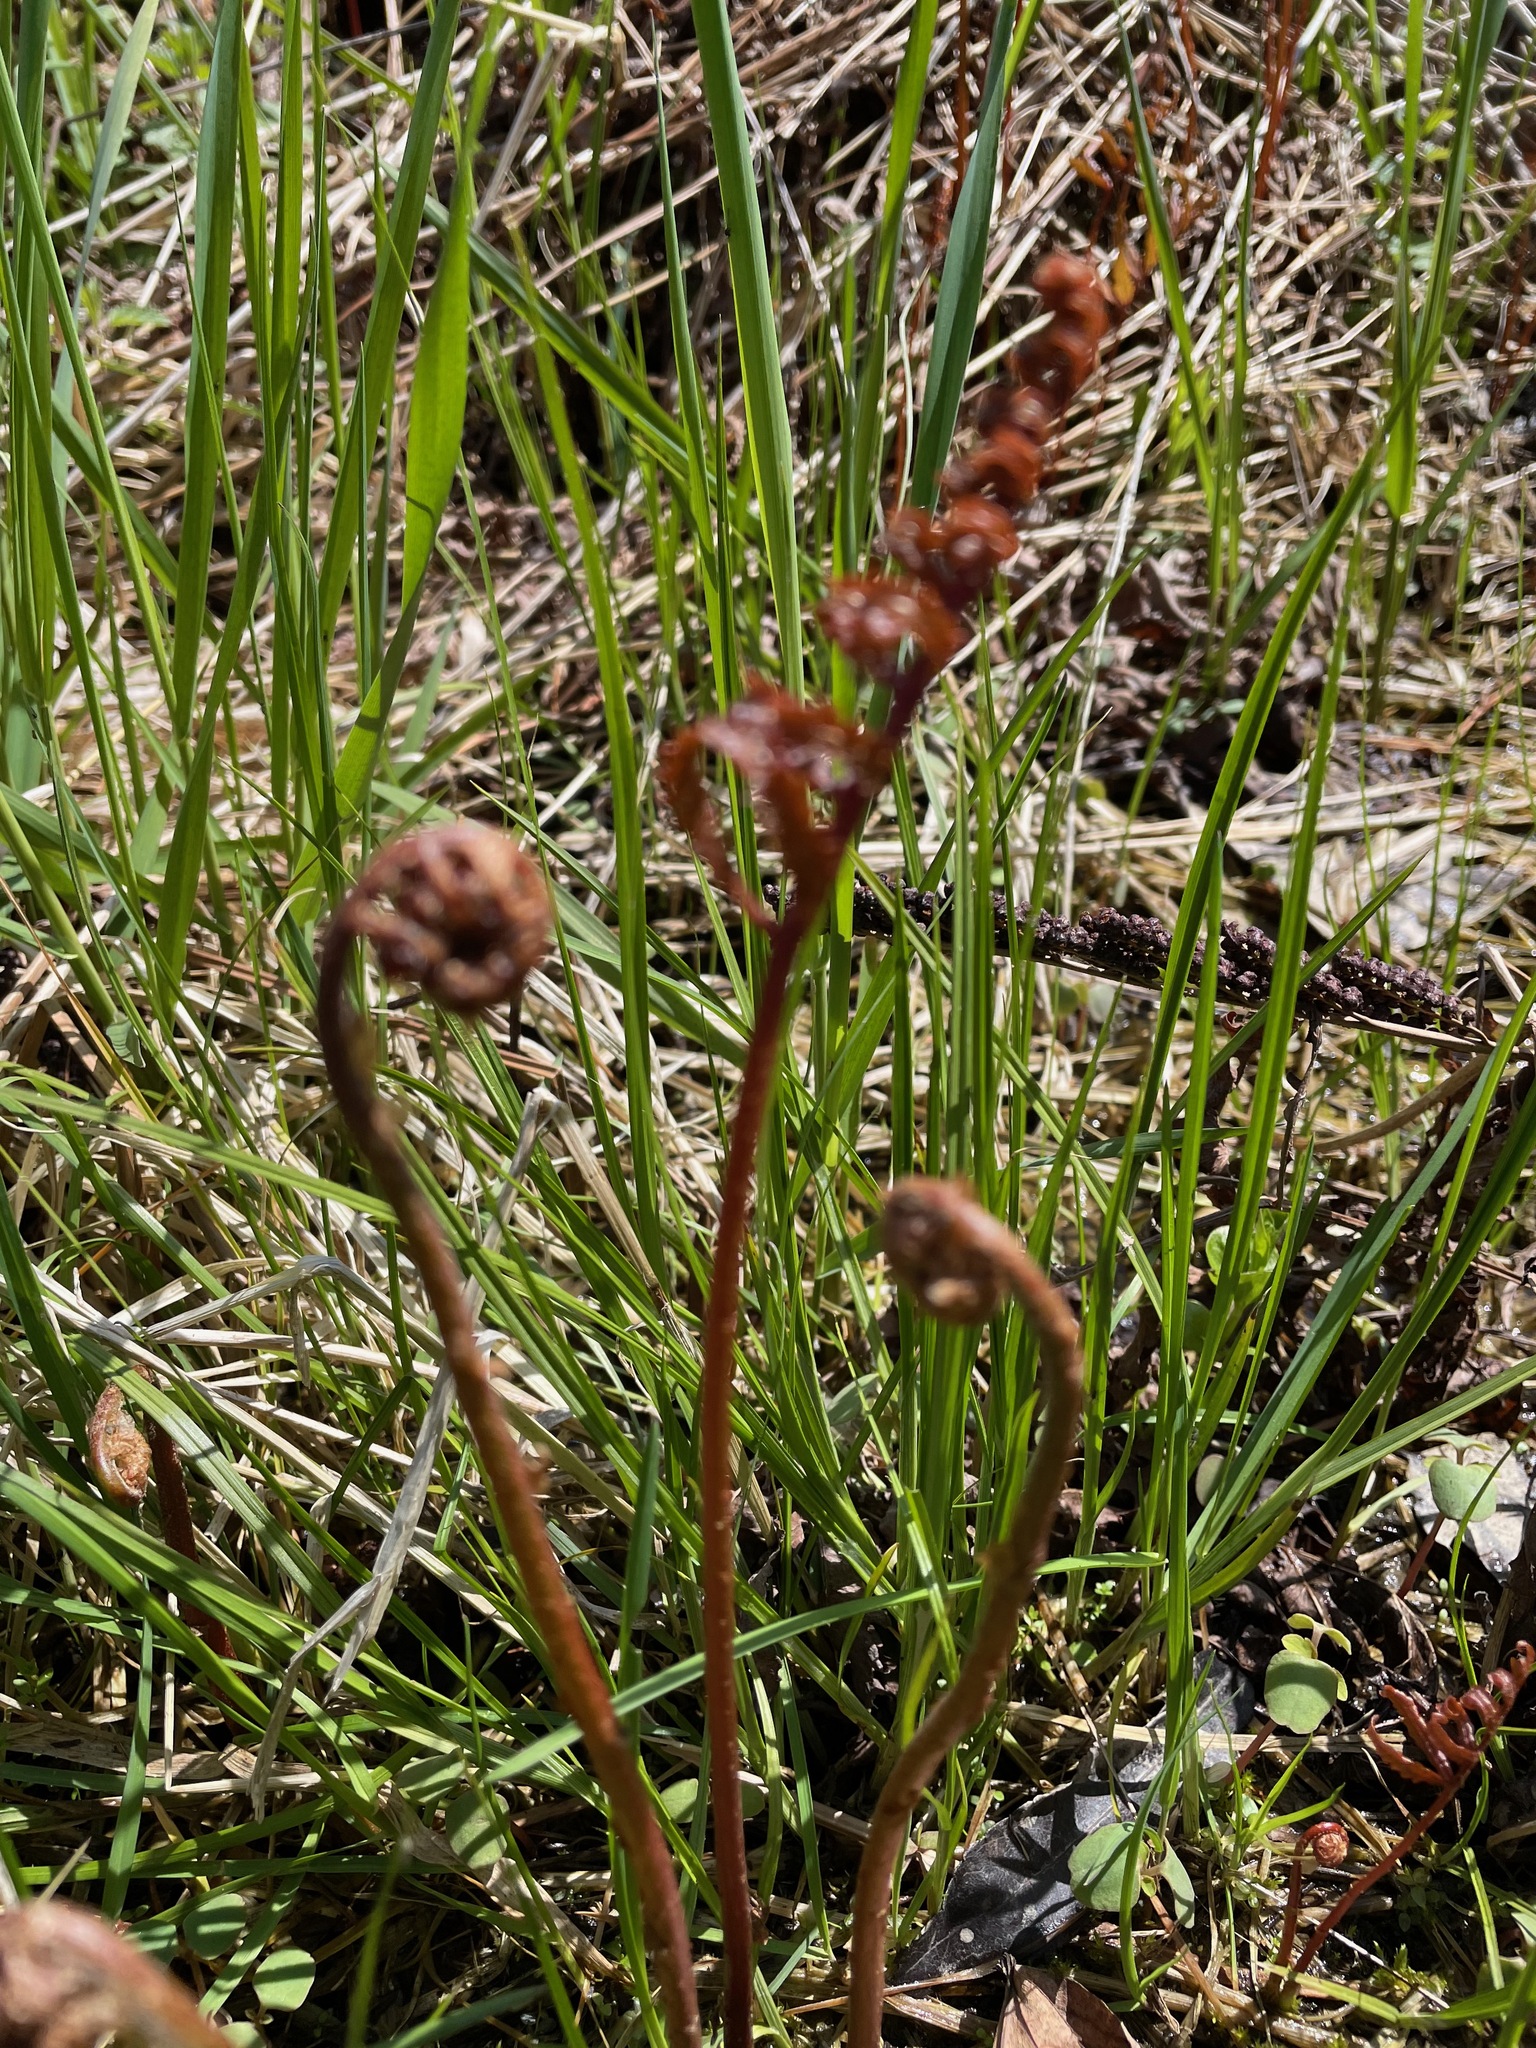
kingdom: Plantae
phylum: Tracheophyta
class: Polypodiopsida
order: Polypodiales
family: Onocleaceae
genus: Onoclea
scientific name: Onoclea sensibilis
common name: Sensitive fern
